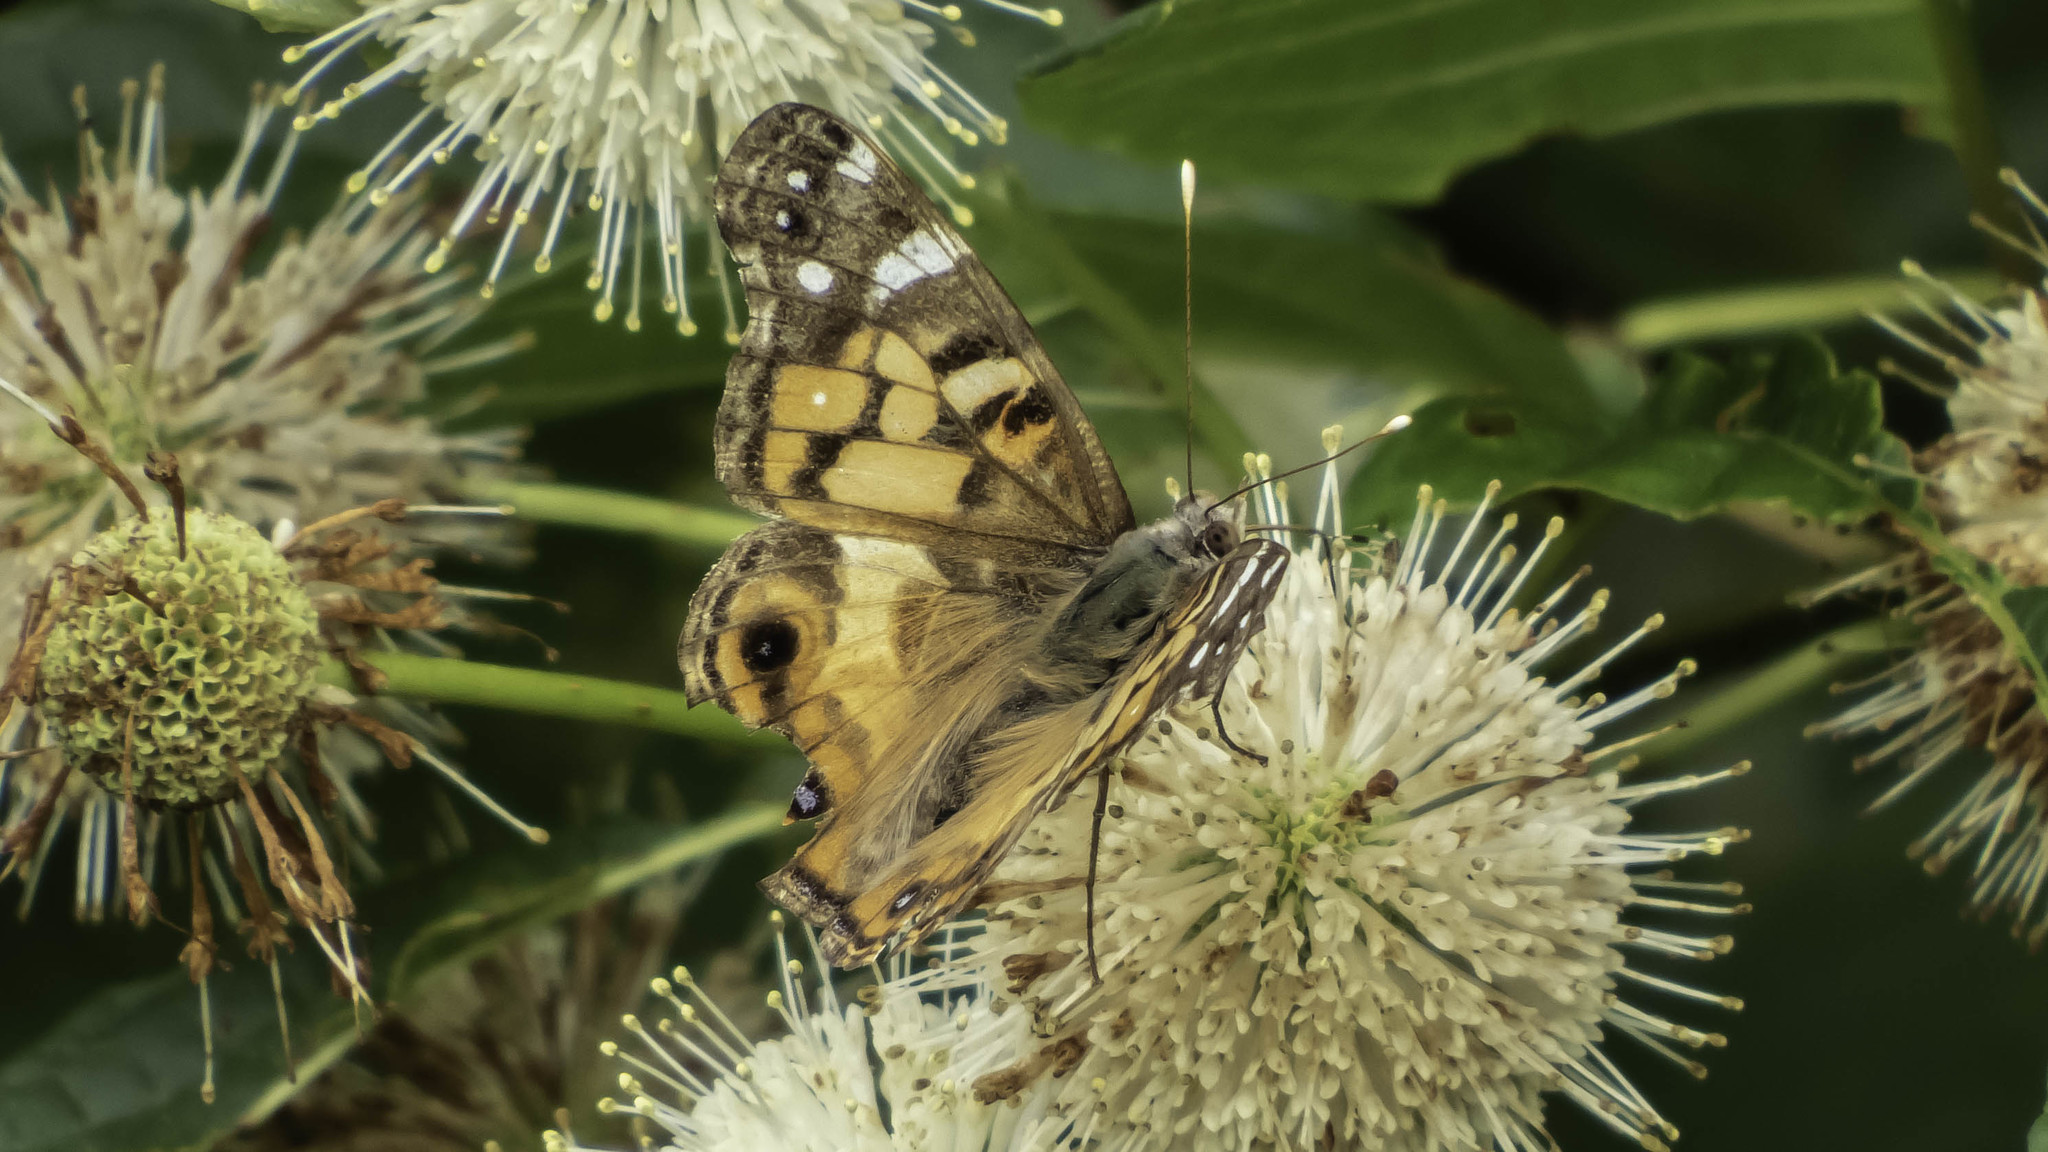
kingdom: Animalia
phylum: Arthropoda
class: Insecta
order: Lepidoptera
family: Nymphalidae
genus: Vanessa
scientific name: Vanessa virginiensis
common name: American lady
